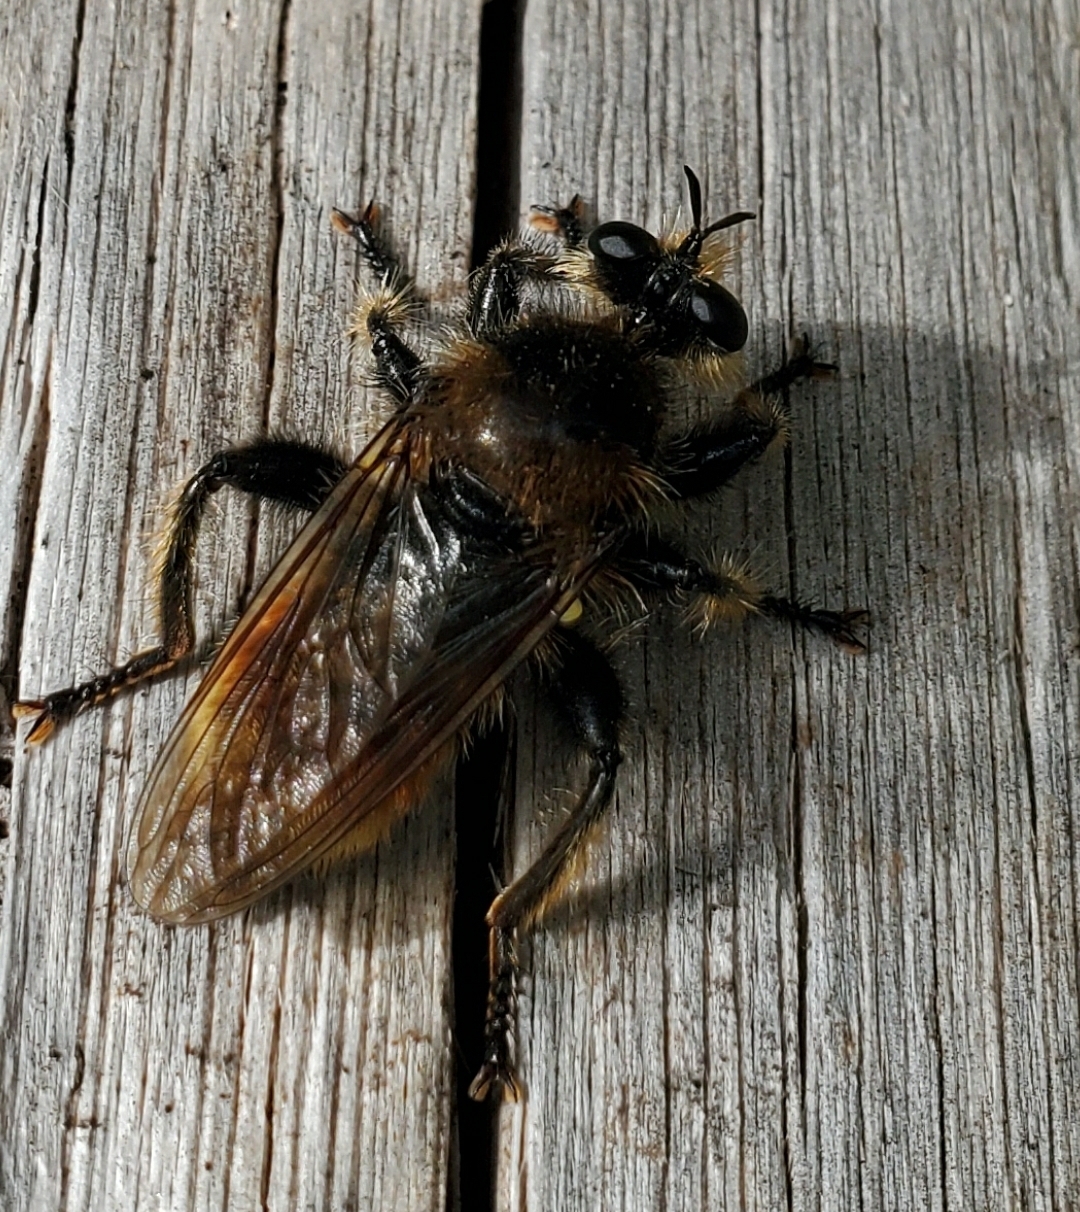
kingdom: Animalia
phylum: Arthropoda
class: Insecta
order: Diptera
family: Asilidae
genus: Laphria
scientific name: Laphria asturina
